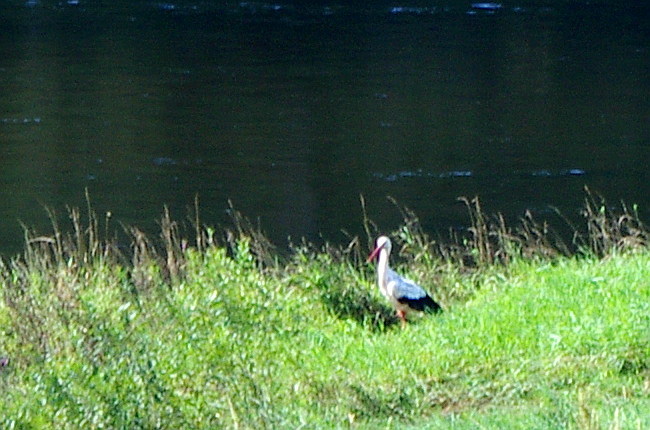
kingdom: Animalia
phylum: Chordata
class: Aves
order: Ciconiiformes
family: Ciconiidae
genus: Ciconia
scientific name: Ciconia ciconia
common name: White stork
